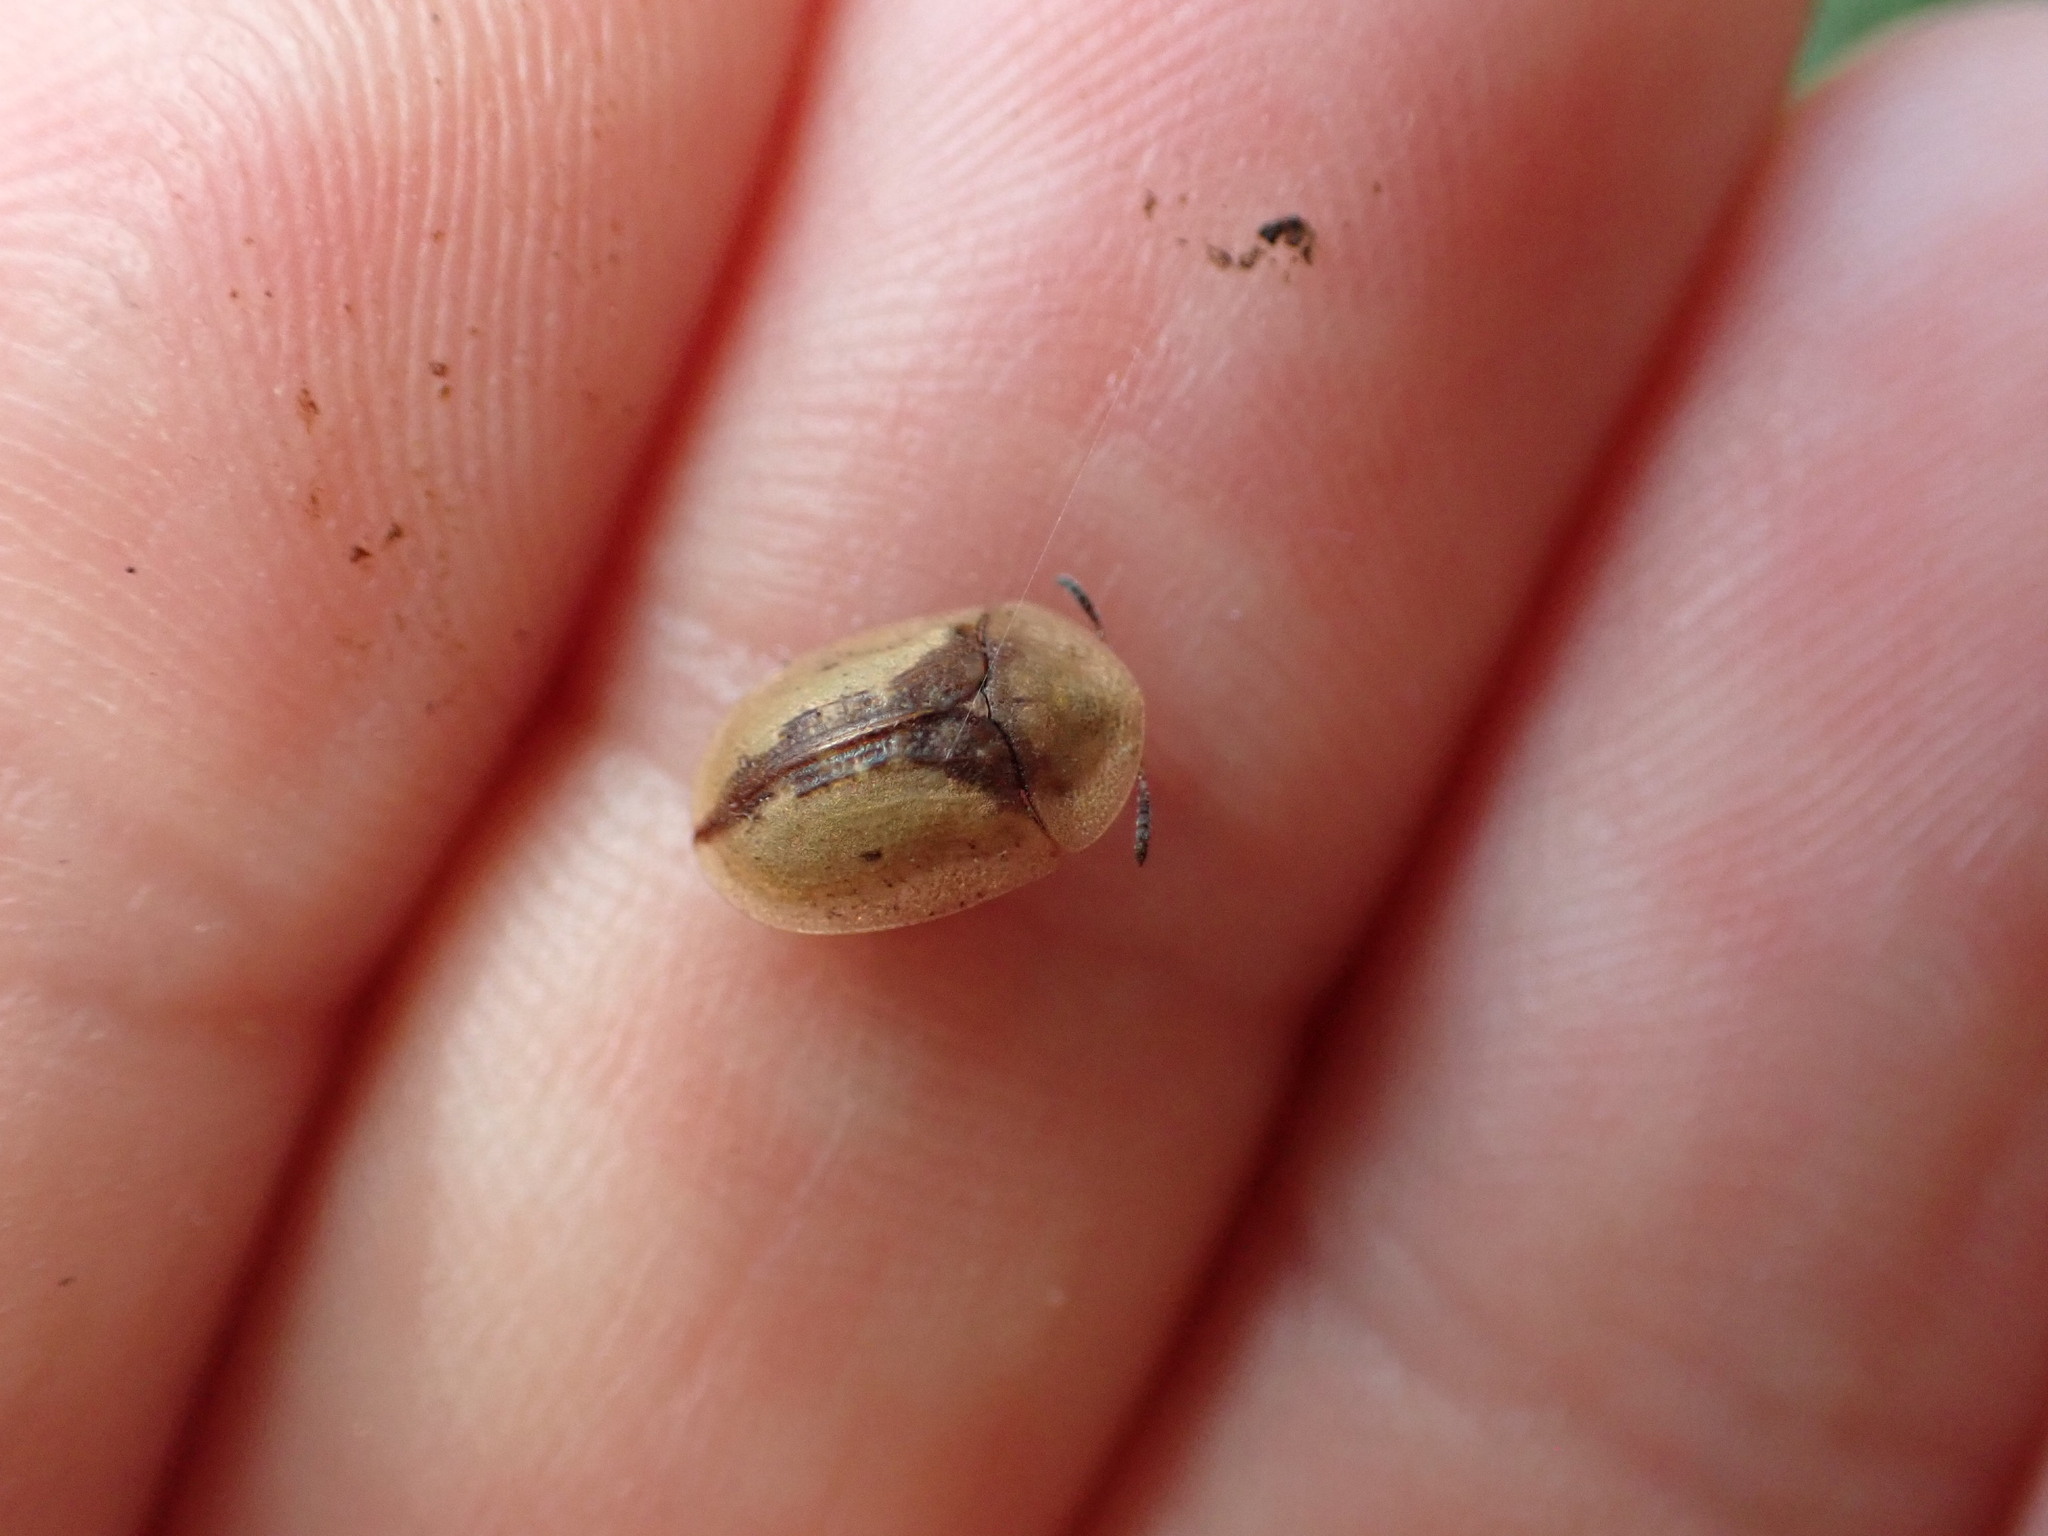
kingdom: Animalia
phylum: Arthropoda
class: Insecta
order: Coleoptera
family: Chrysomelidae
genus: Cassida
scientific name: Cassida vibex
